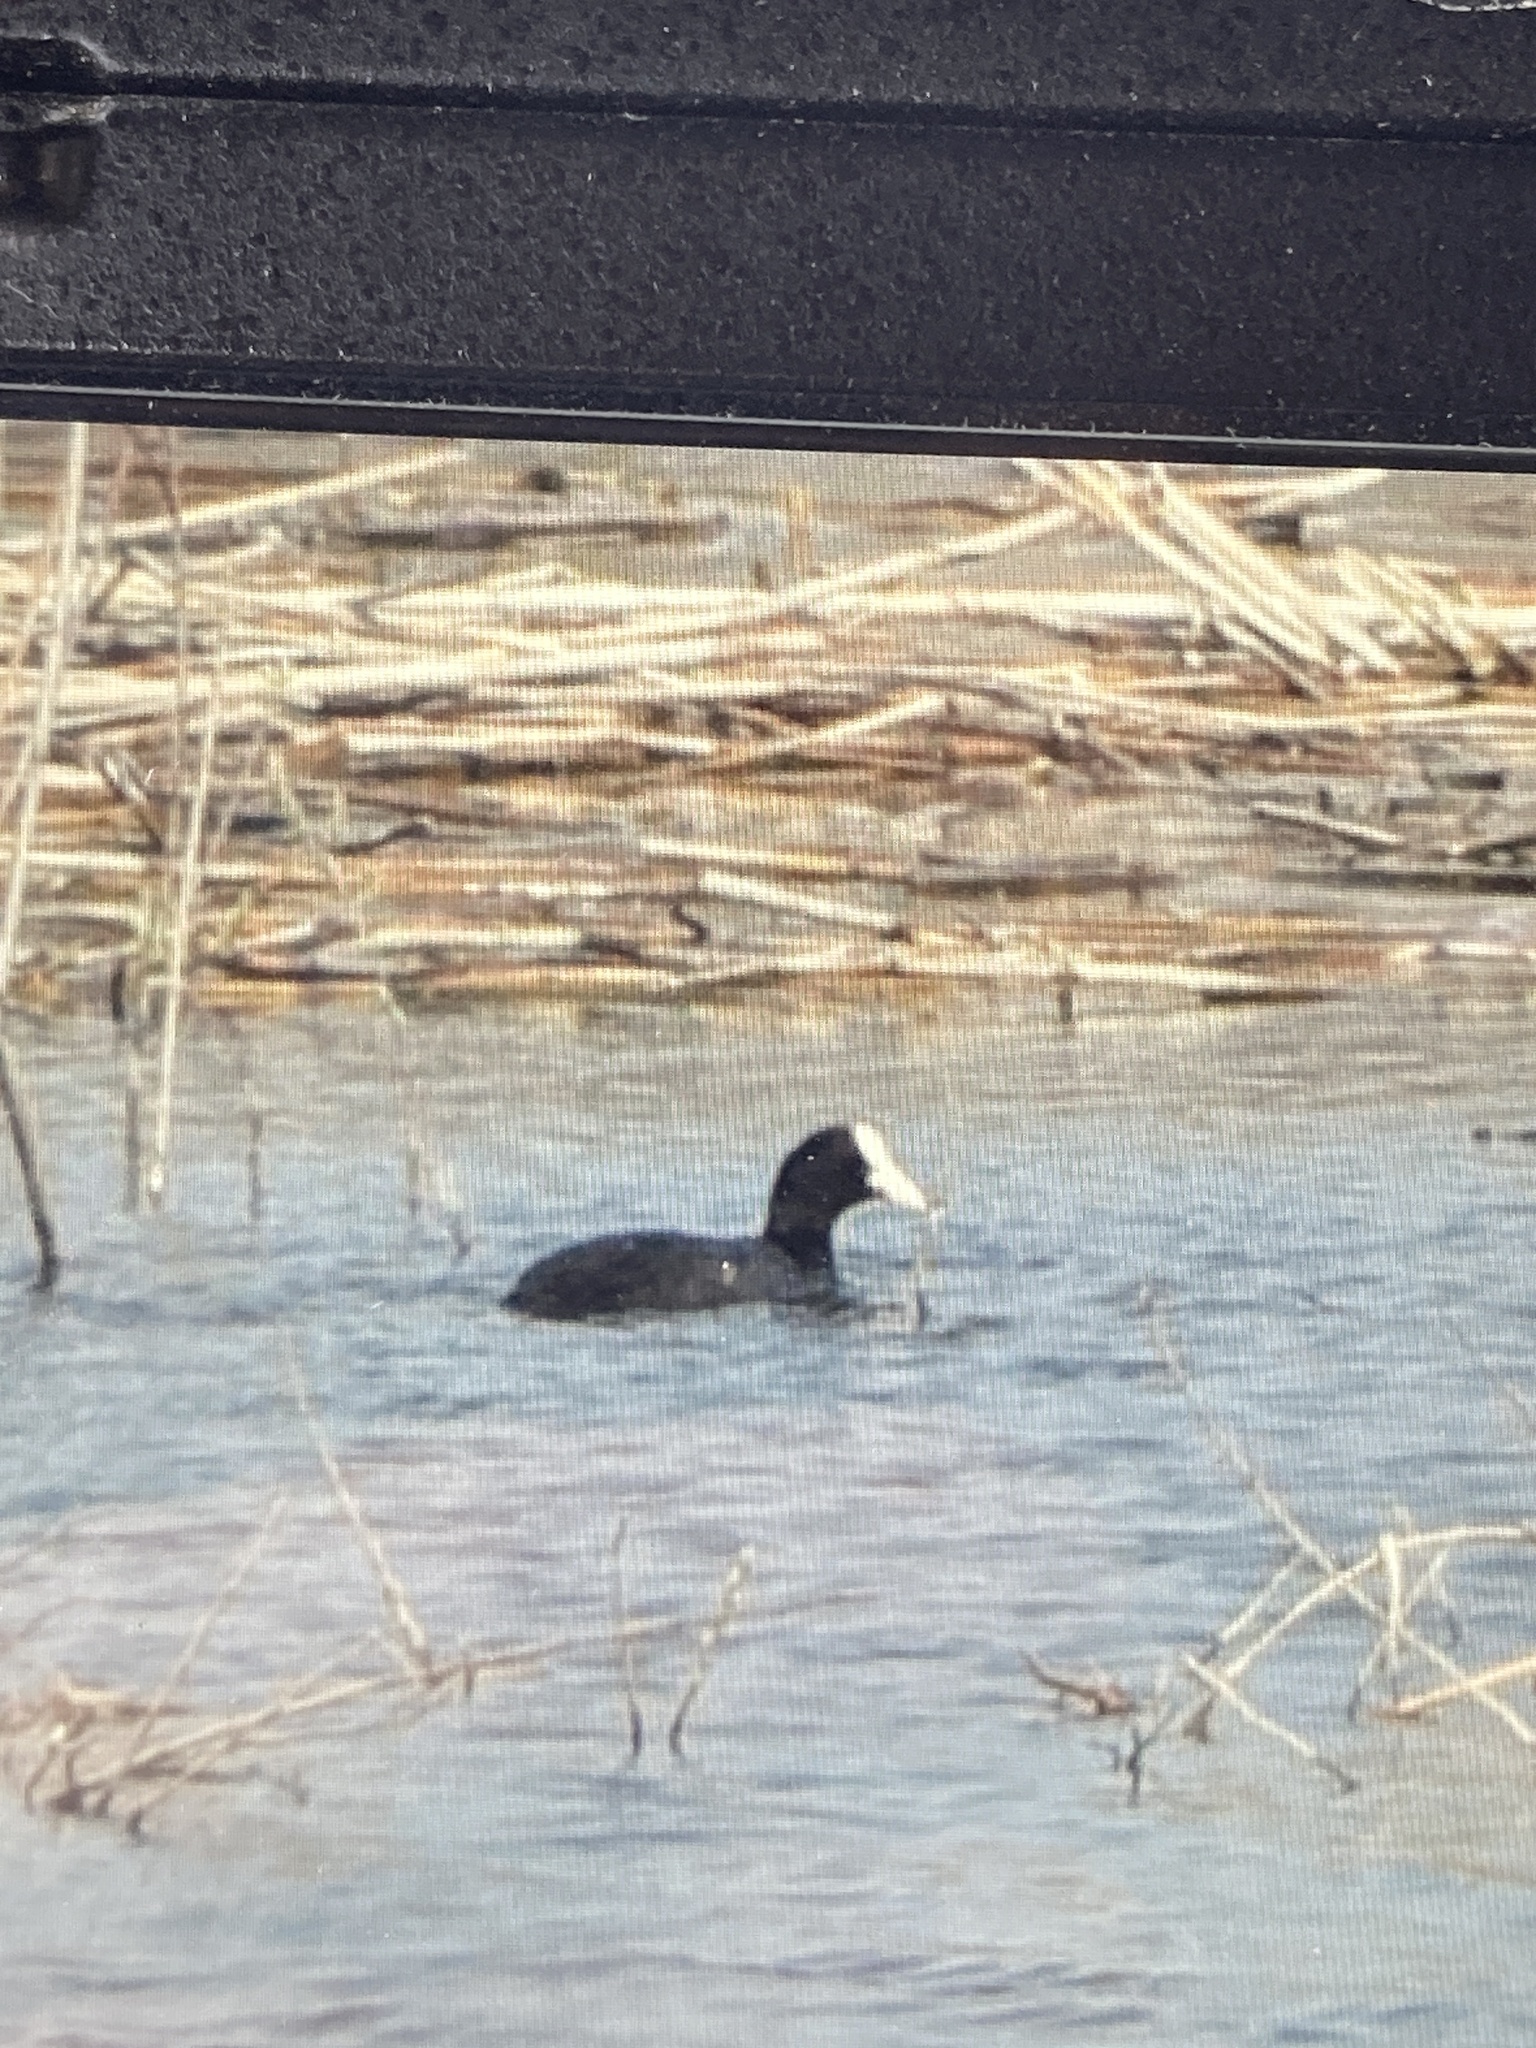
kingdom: Animalia
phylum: Chordata
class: Aves
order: Gruiformes
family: Rallidae
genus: Fulica
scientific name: Fulica atra
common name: Eurasian coot
